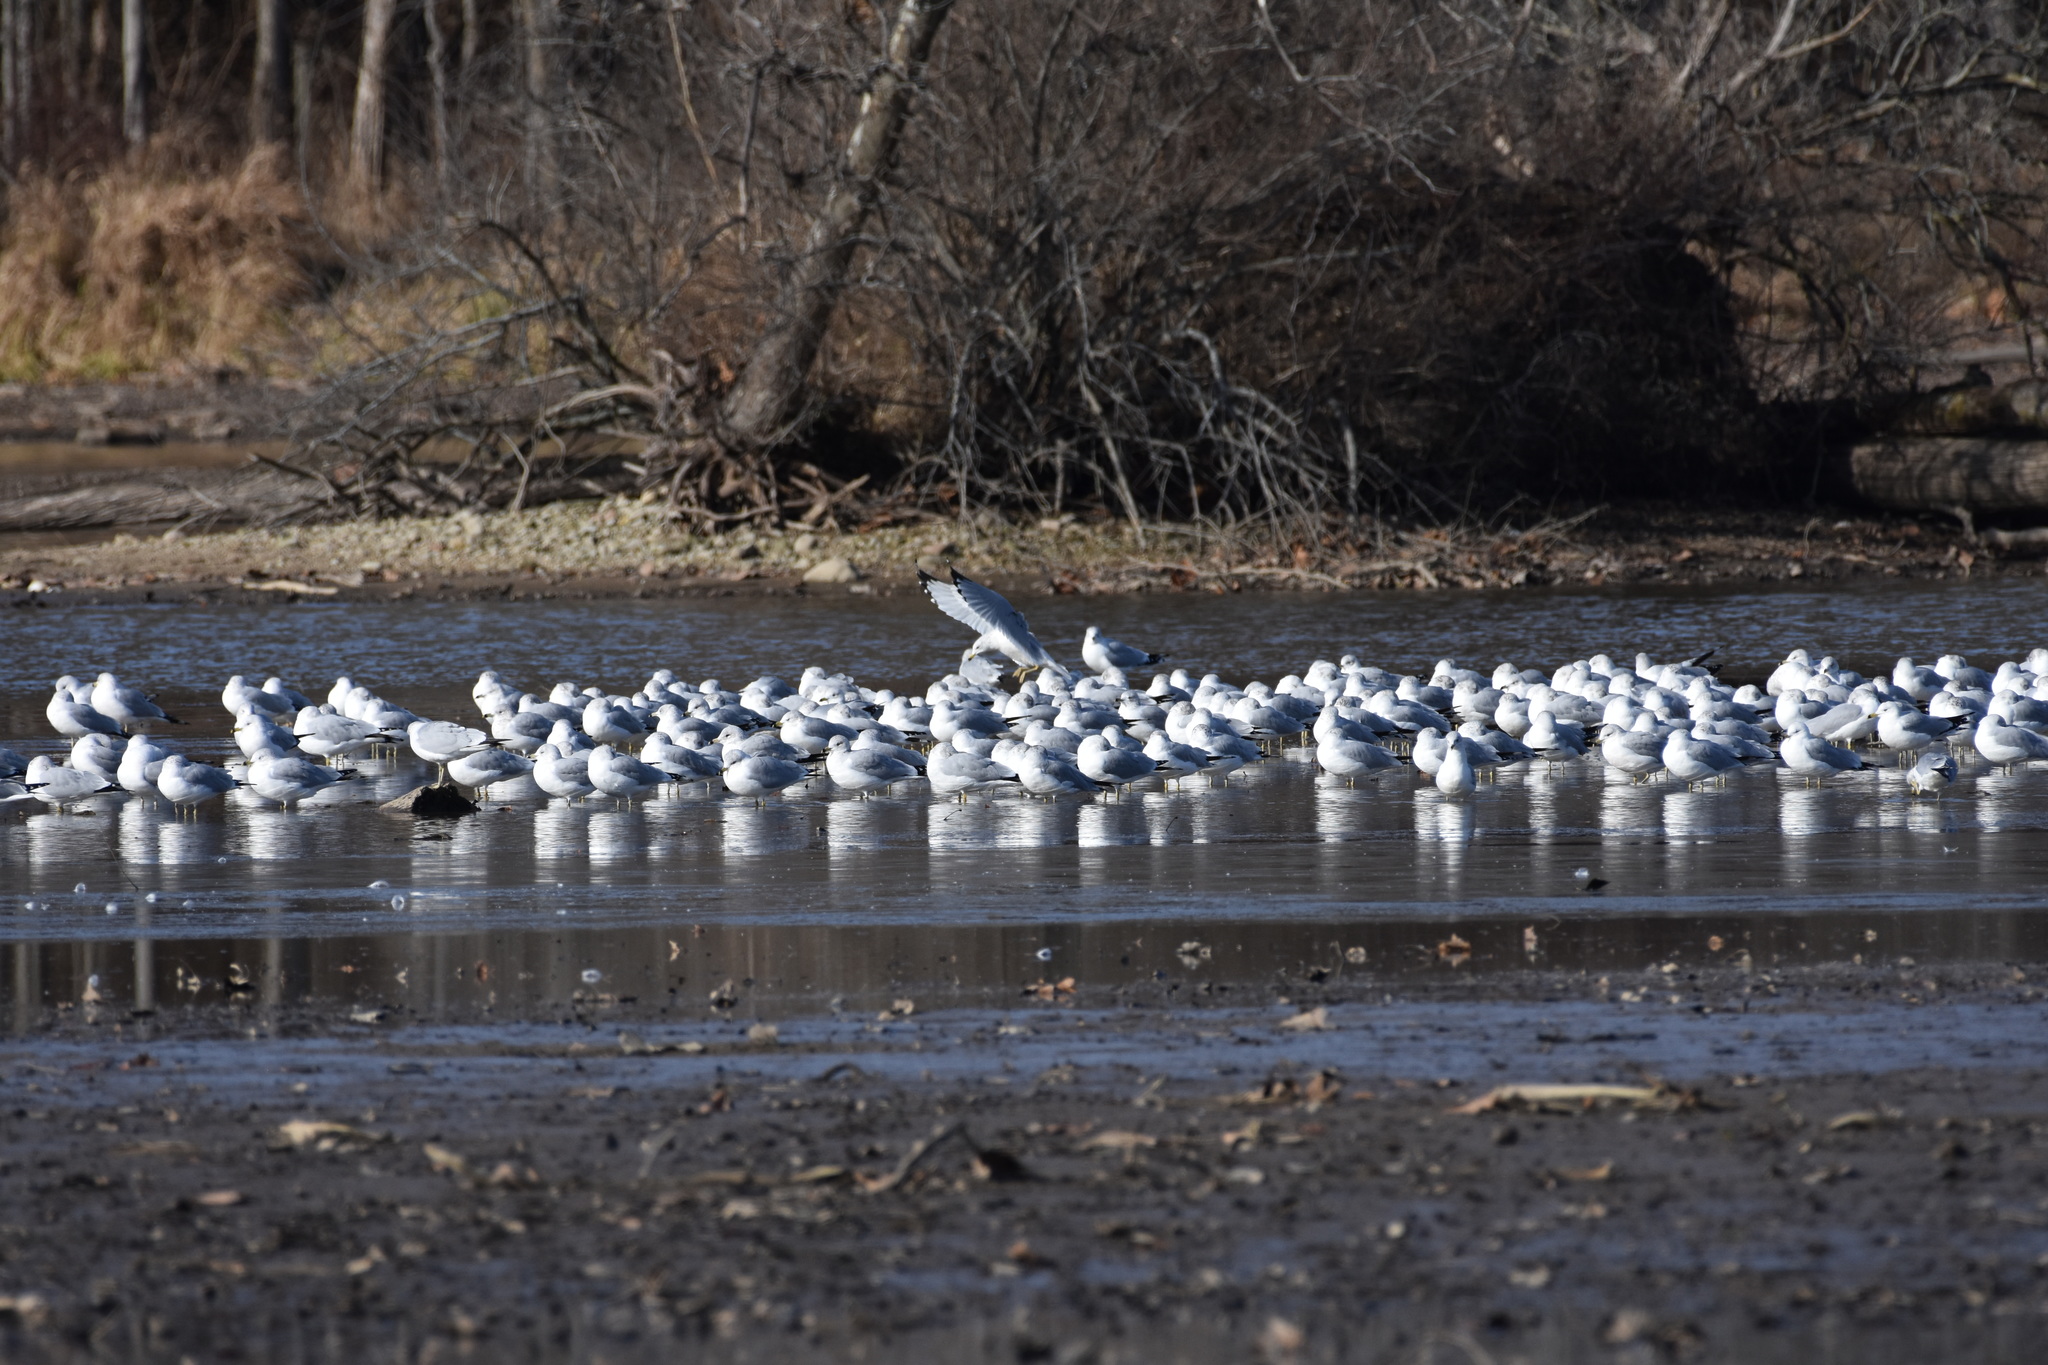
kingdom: Animalia
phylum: Chordata
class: Aves
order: Charadriiformes
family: Laridae
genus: Larus
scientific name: Larus delawarensis
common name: Ring-billed gull
